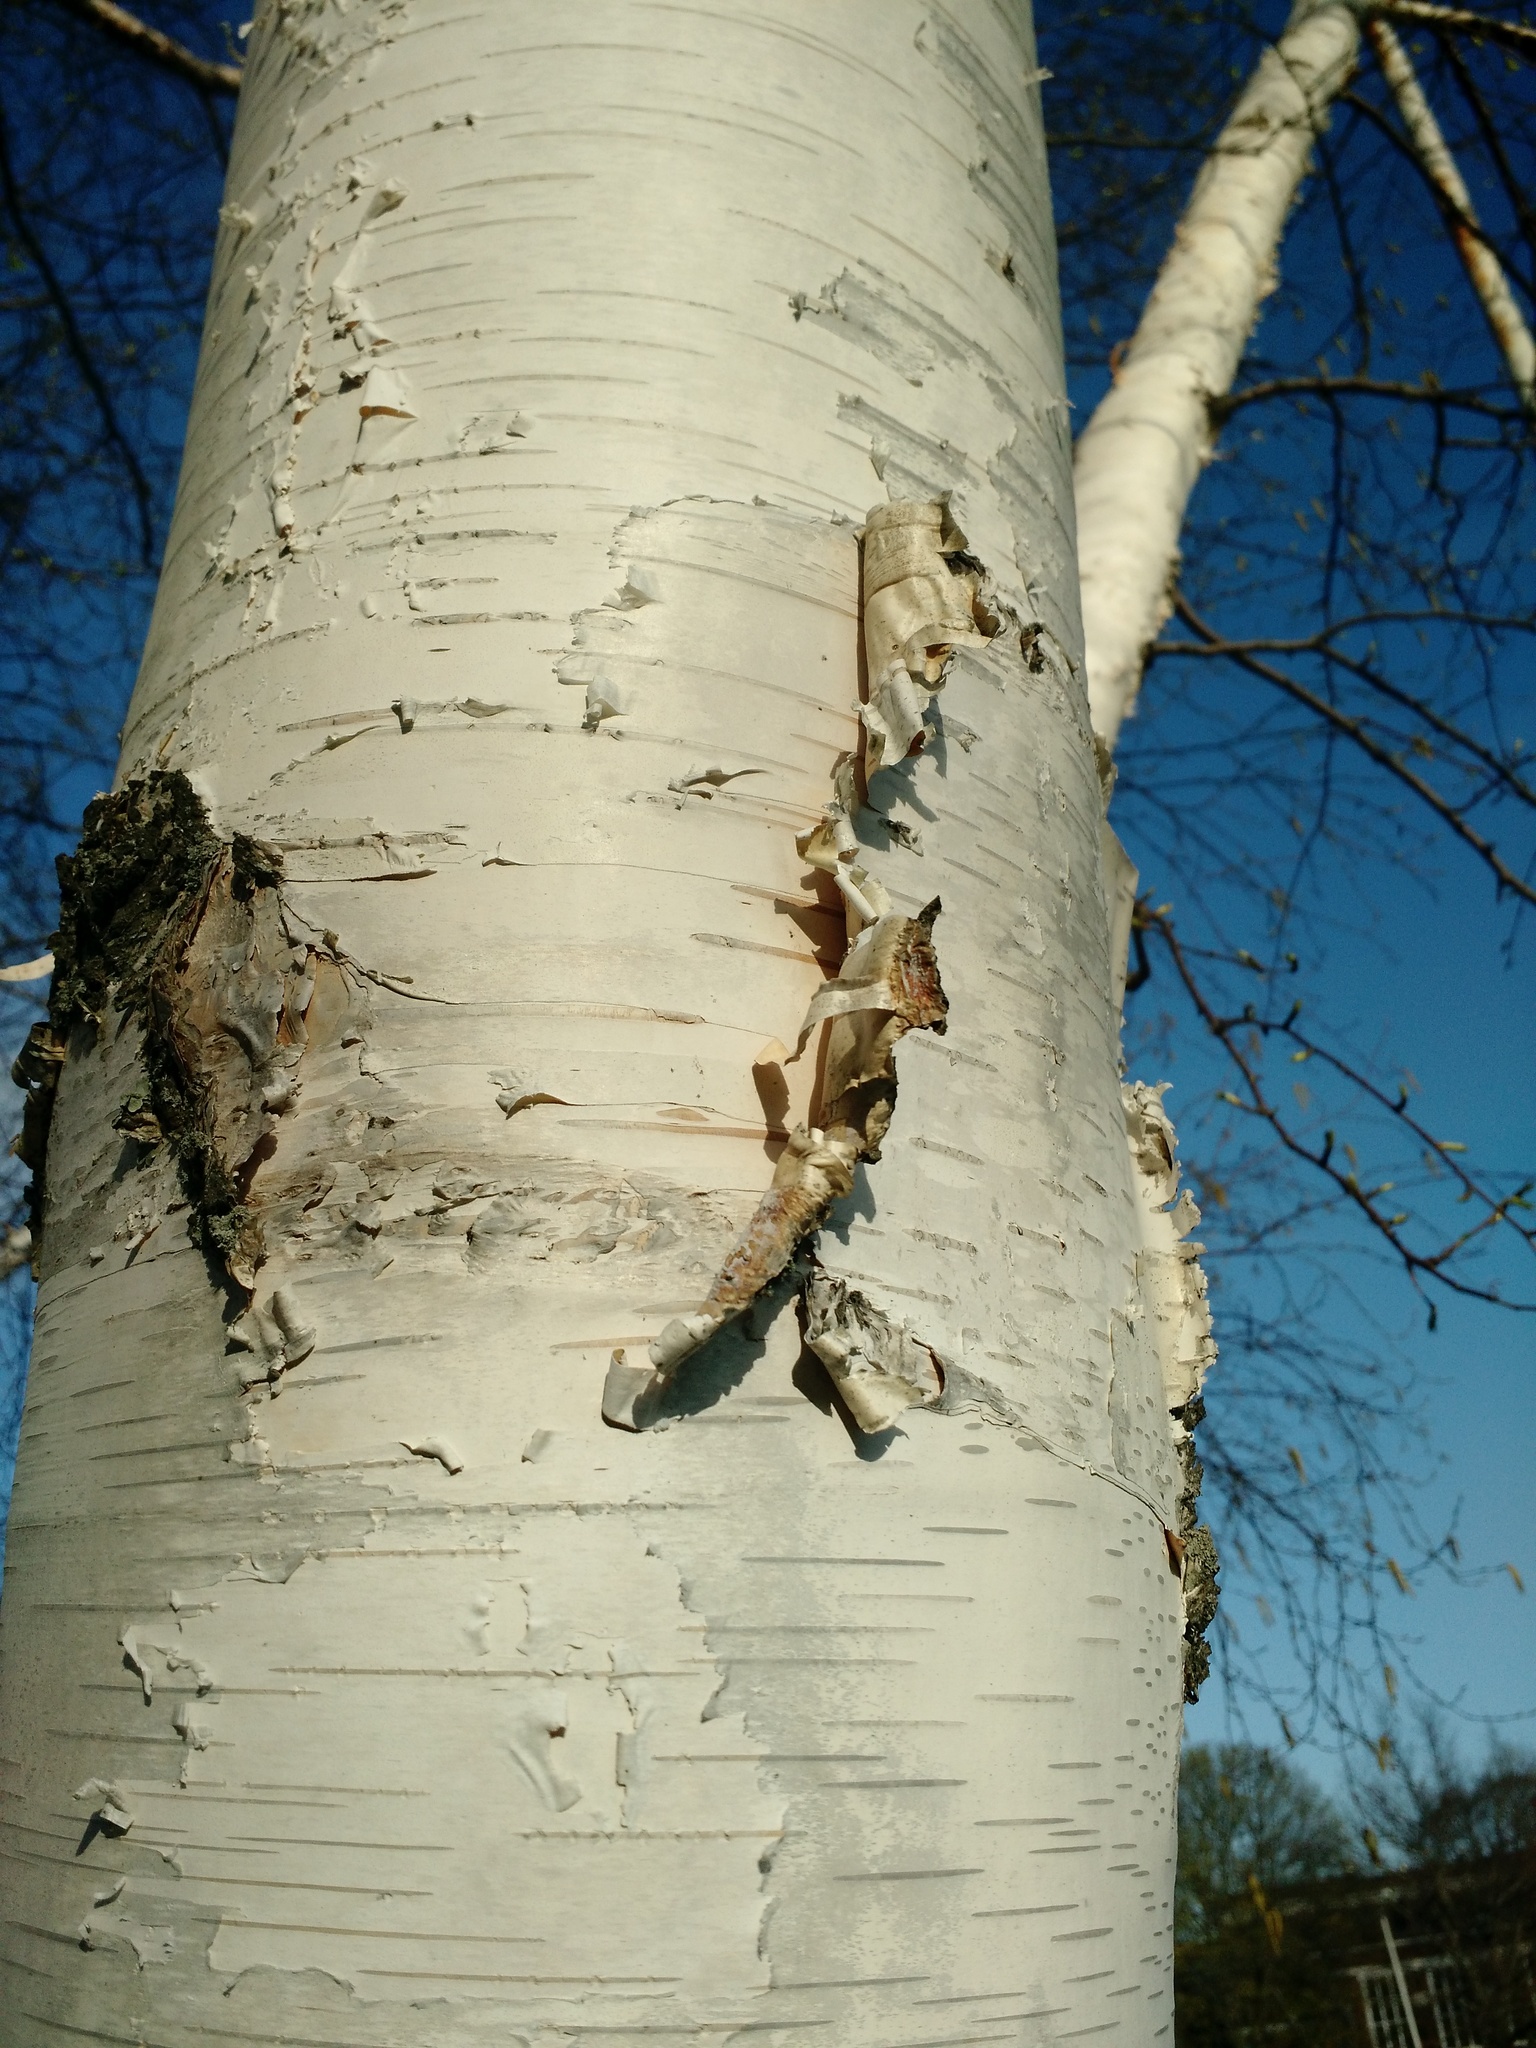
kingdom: Plantae
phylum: Tracheophyta
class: Magnoliopsida
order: Fagales
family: Betulaceae
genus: Betula
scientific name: Betula papyrifera
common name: Paper birch
